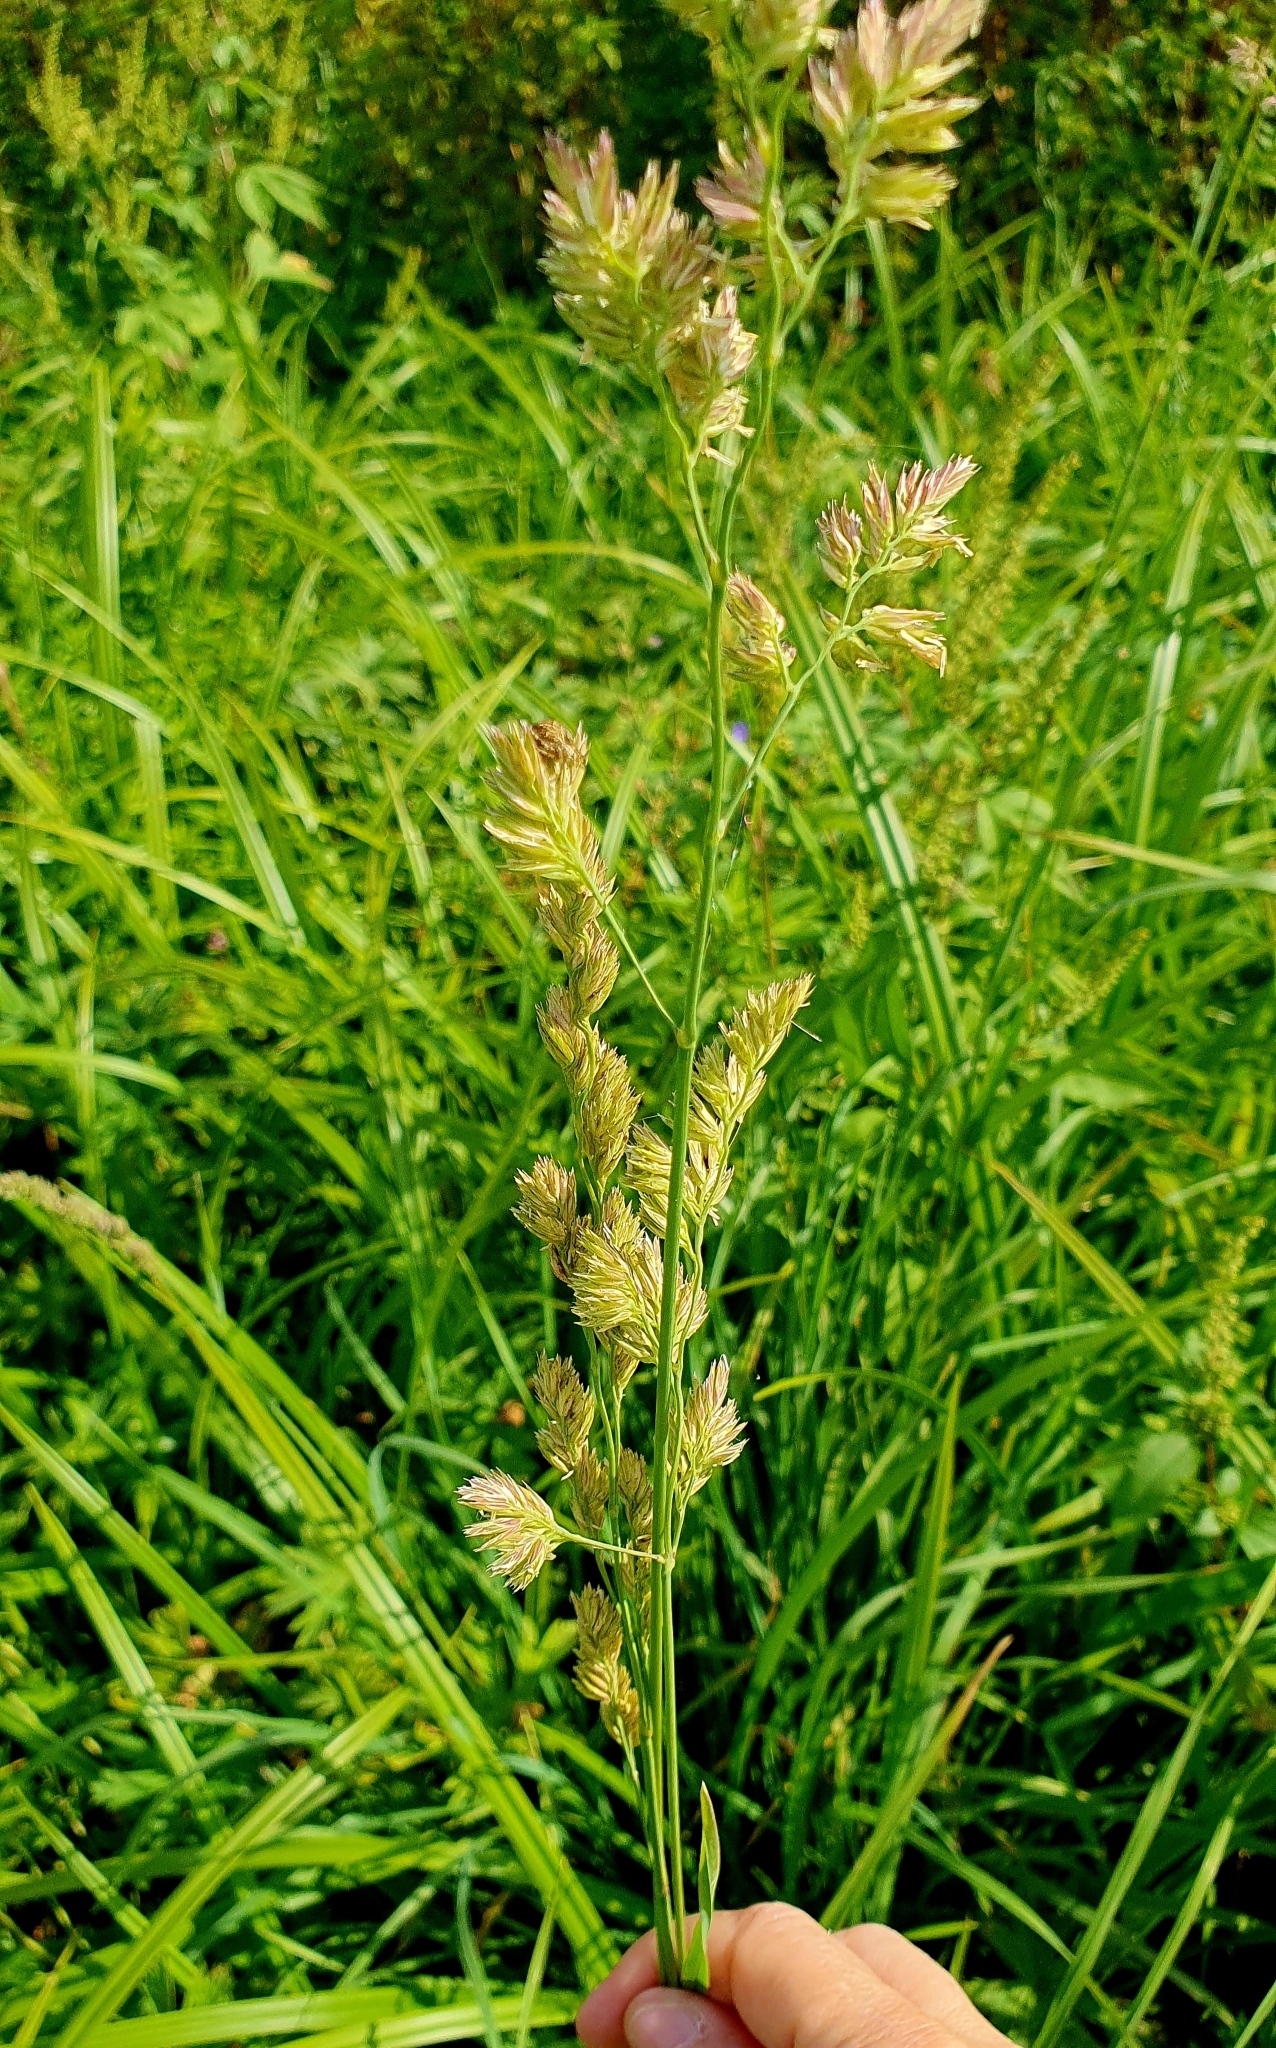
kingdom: Plantae
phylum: Tracheophyta
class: Liliopsida
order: Poales
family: Poaceae
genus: Dactylis
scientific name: Dactylis glomerata
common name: Orchardgrass
